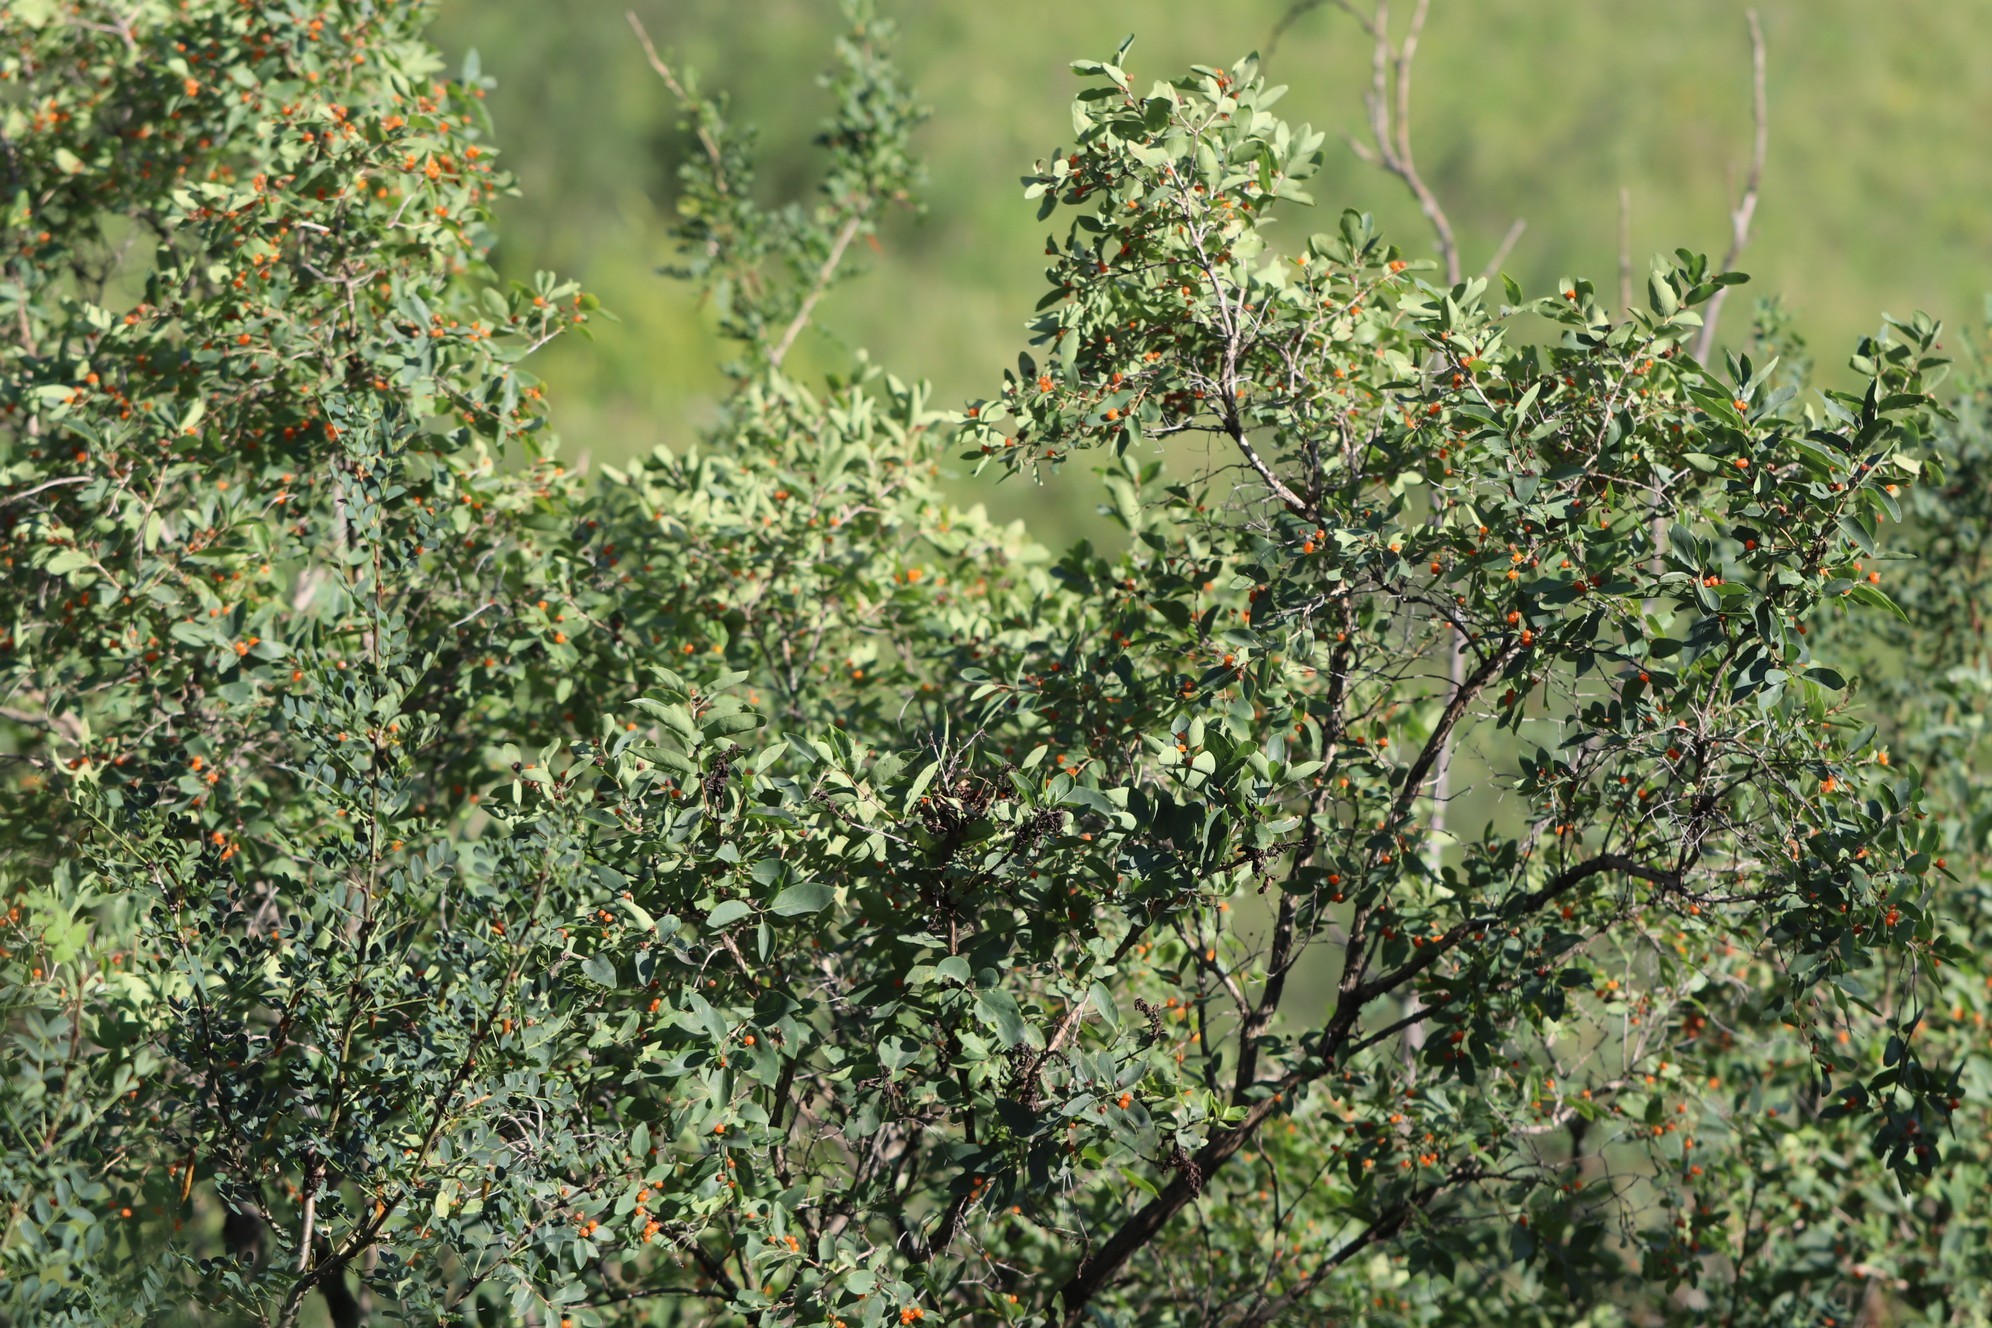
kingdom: Plantae
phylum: Tracheophyta
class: Magnoliopsida
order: Dipsacales
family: Caprifoliaceae
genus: Lonicera
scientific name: Lonicera tatarica
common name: Tatarian honeysuckle
